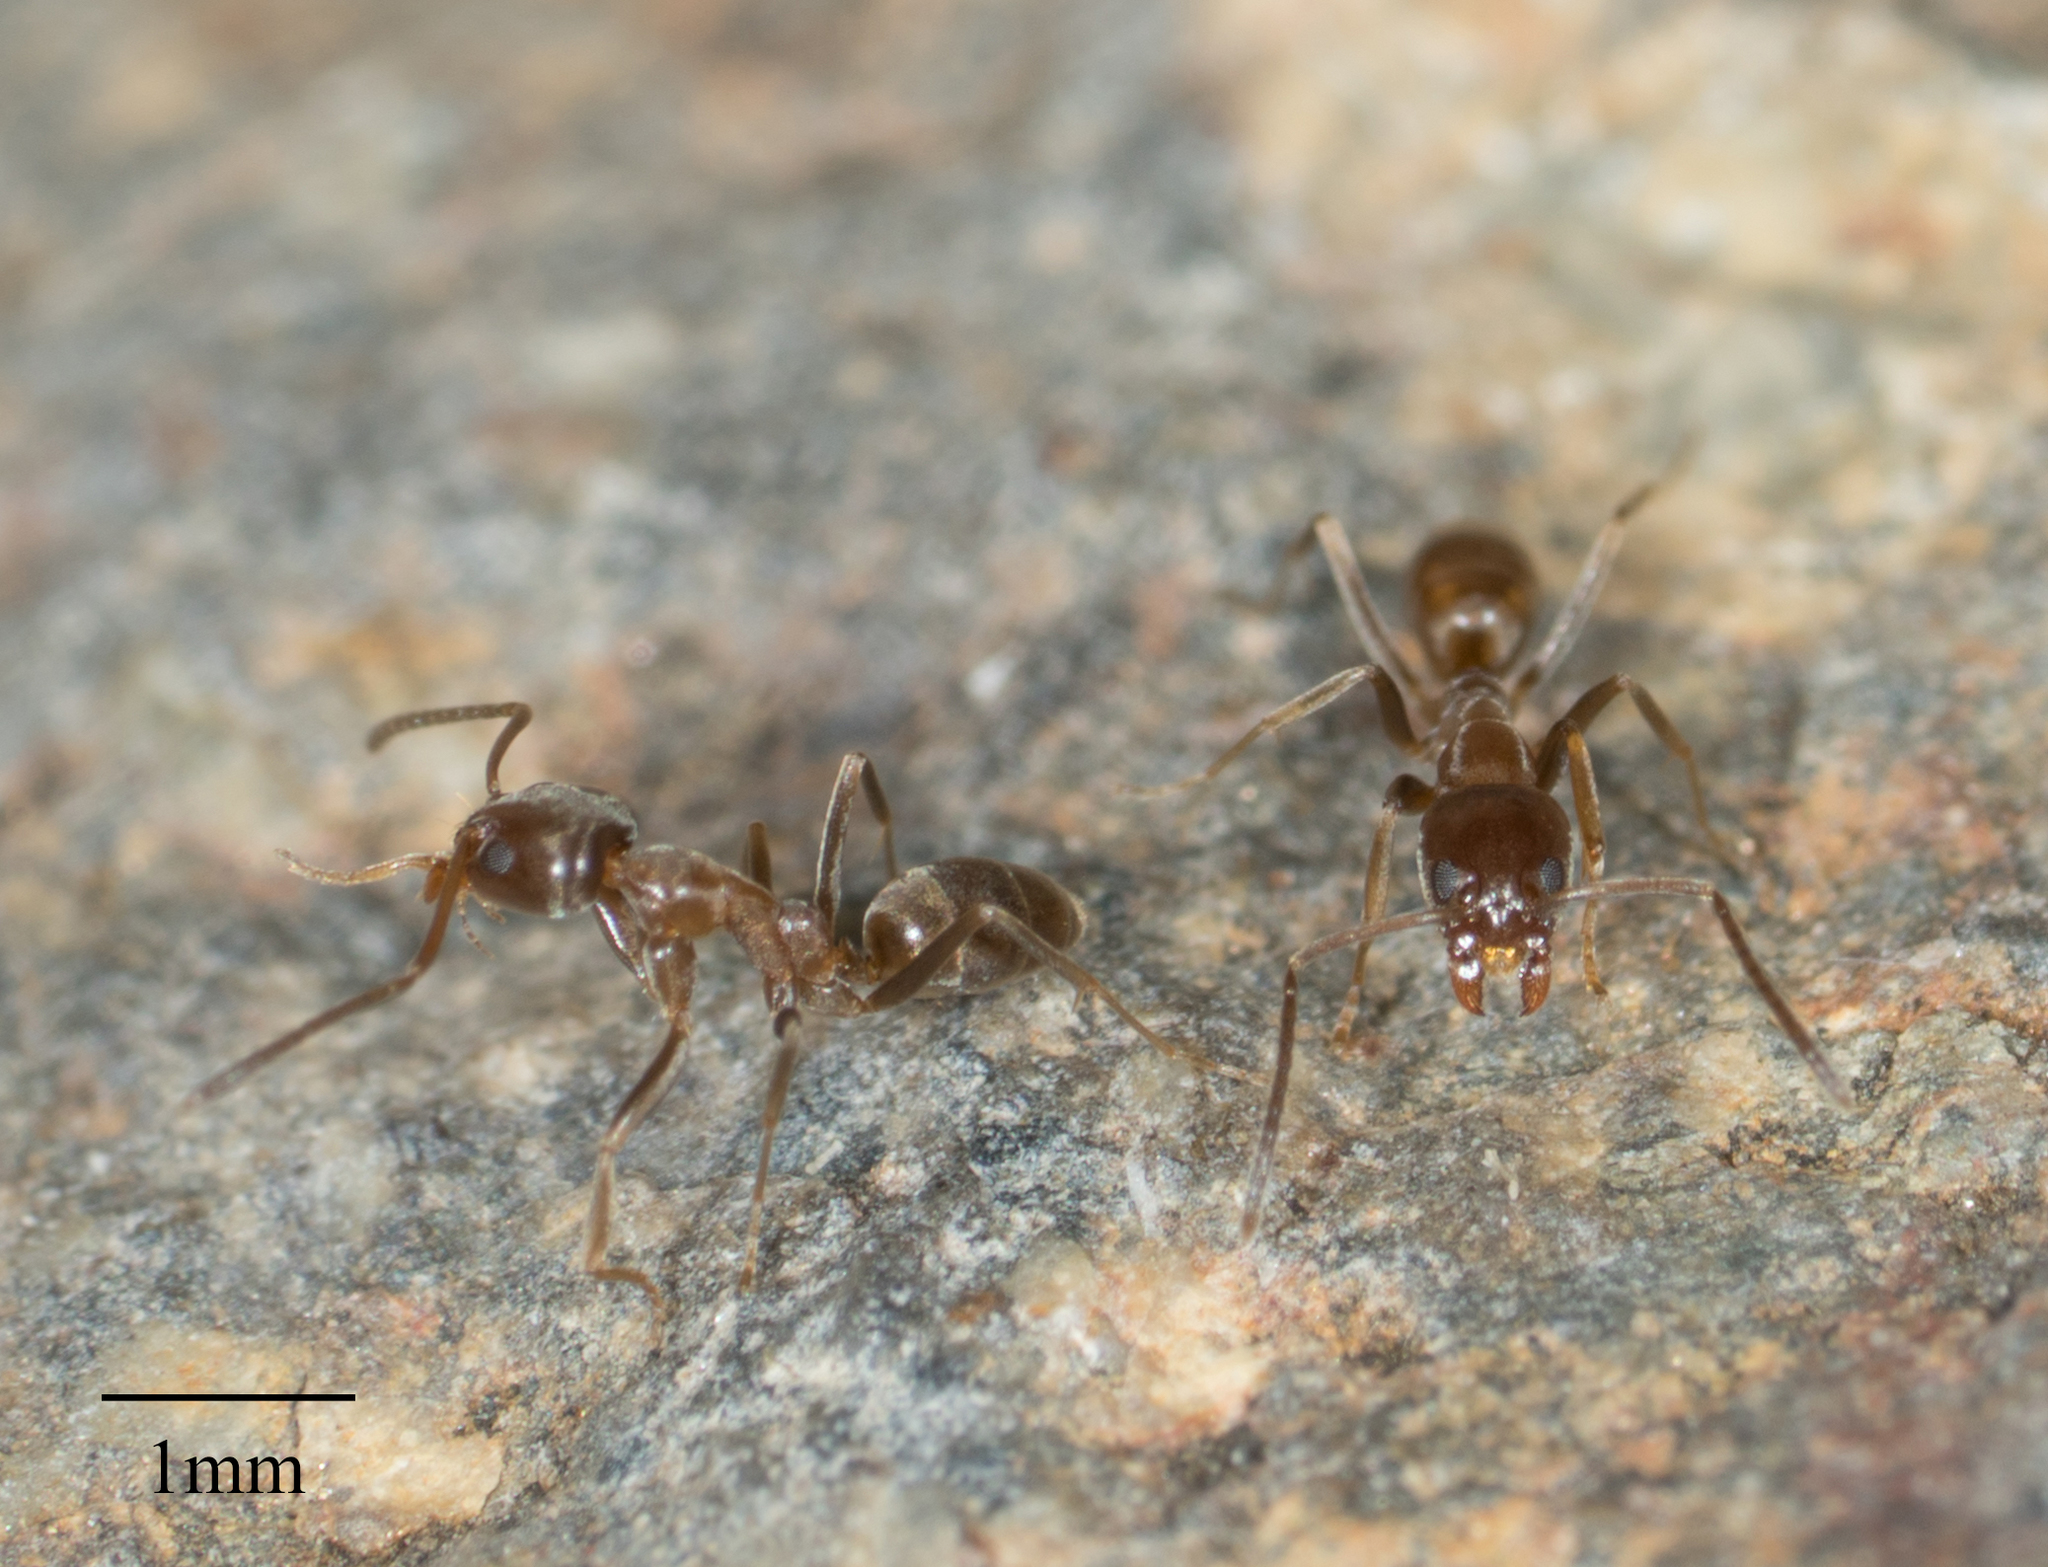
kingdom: Animalia
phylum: Arthropoda
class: Insecta
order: Hymenoptera
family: Formicidae
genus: Linepithema
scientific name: Linepithema humile
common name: Argentine ant
